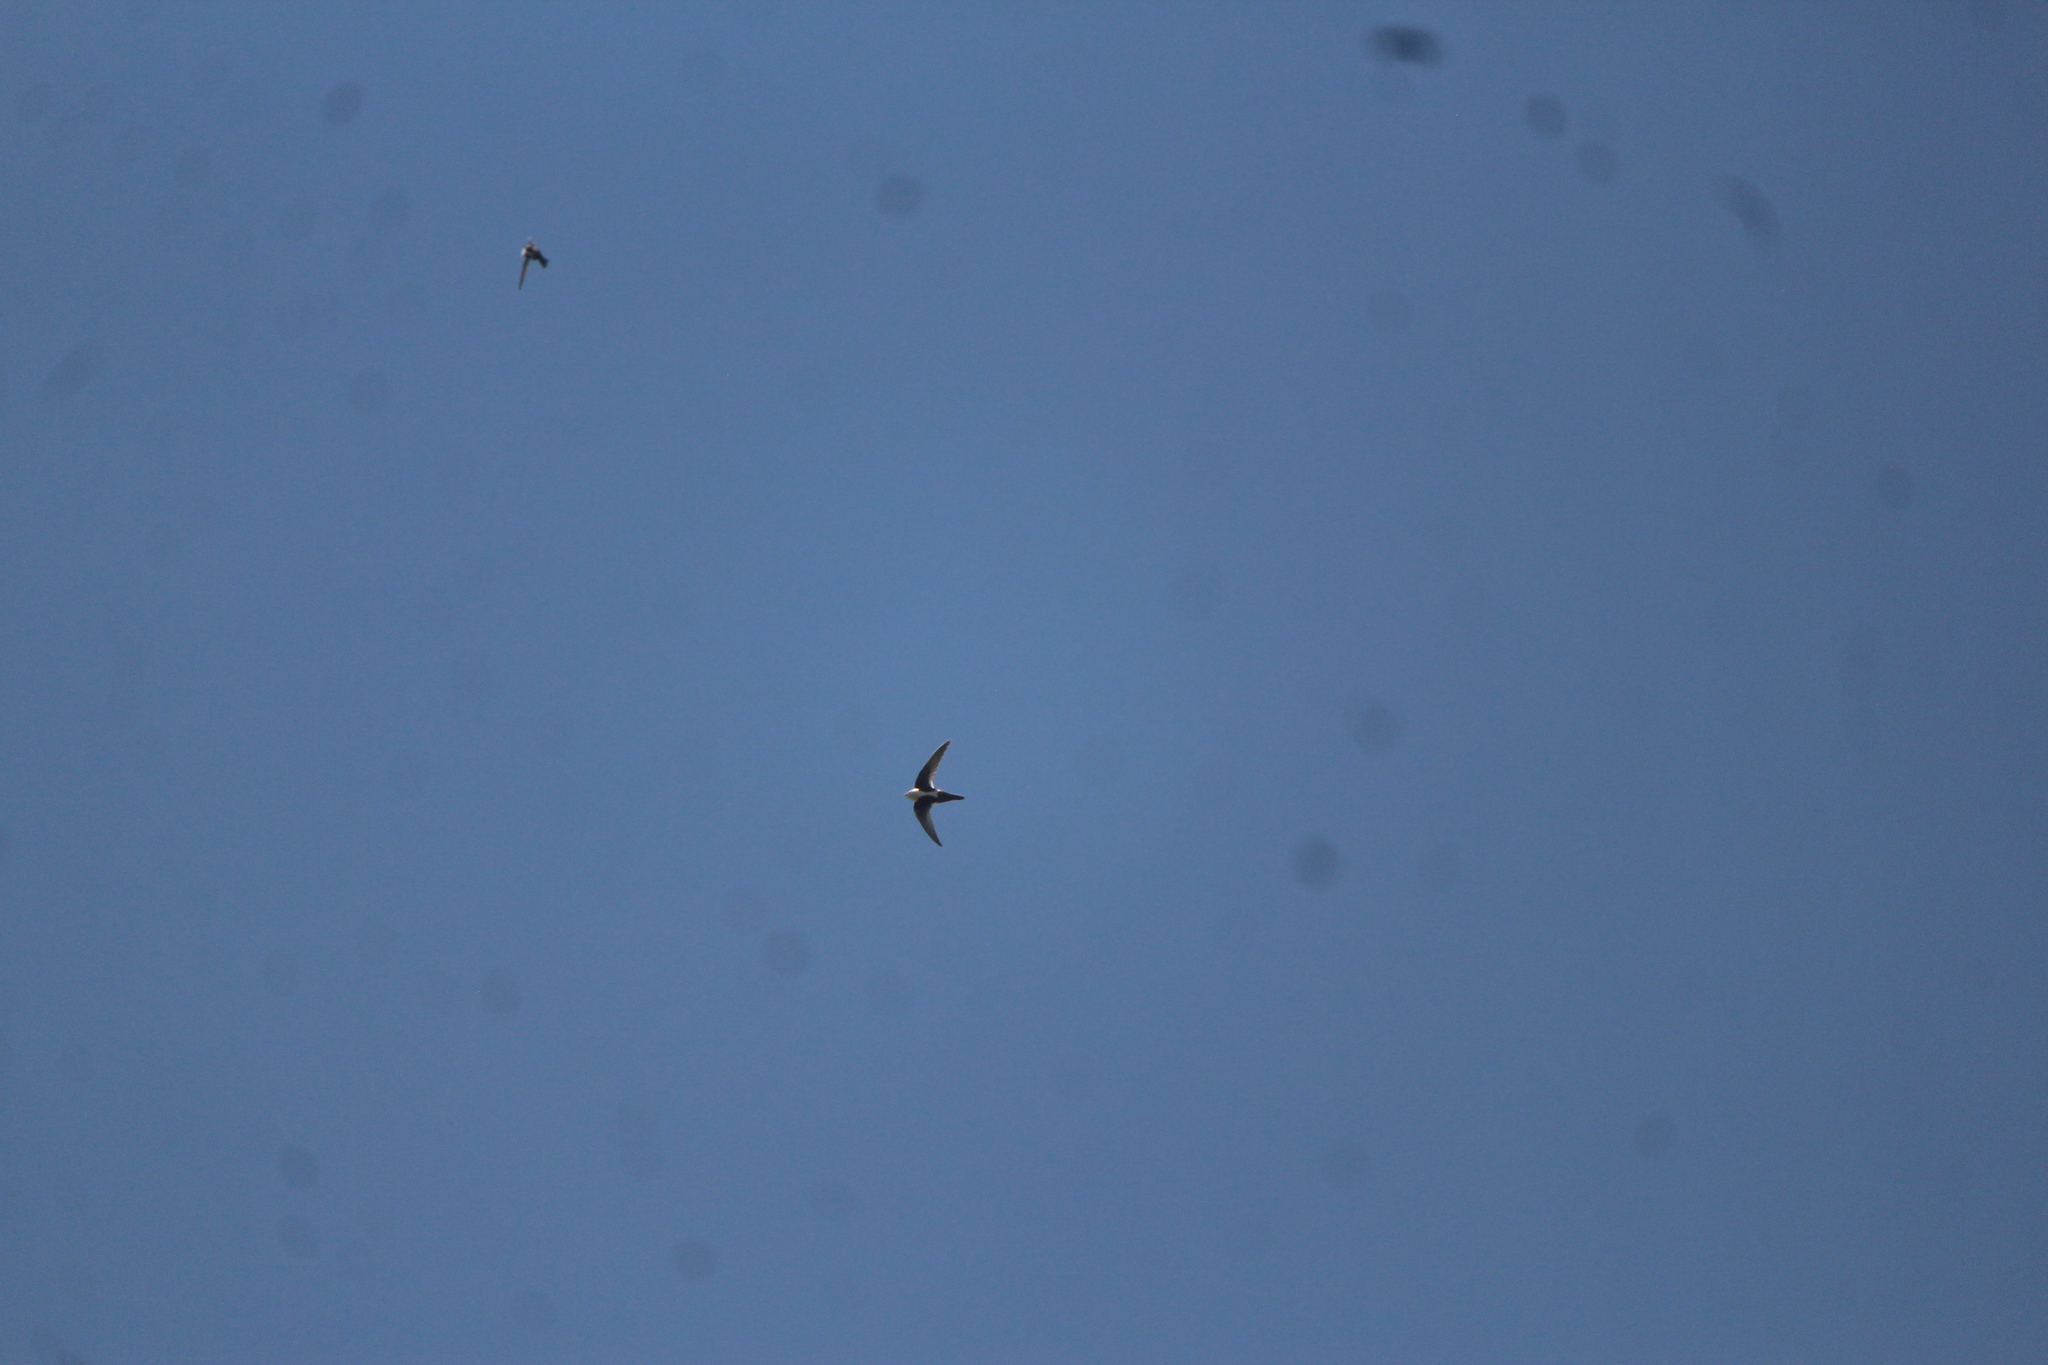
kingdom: Animalia
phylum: Chordata
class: Aves
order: Apodiformes
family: Apodidae
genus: Aeronautes
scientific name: Aeronautes saxatalis
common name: White-throated swift
